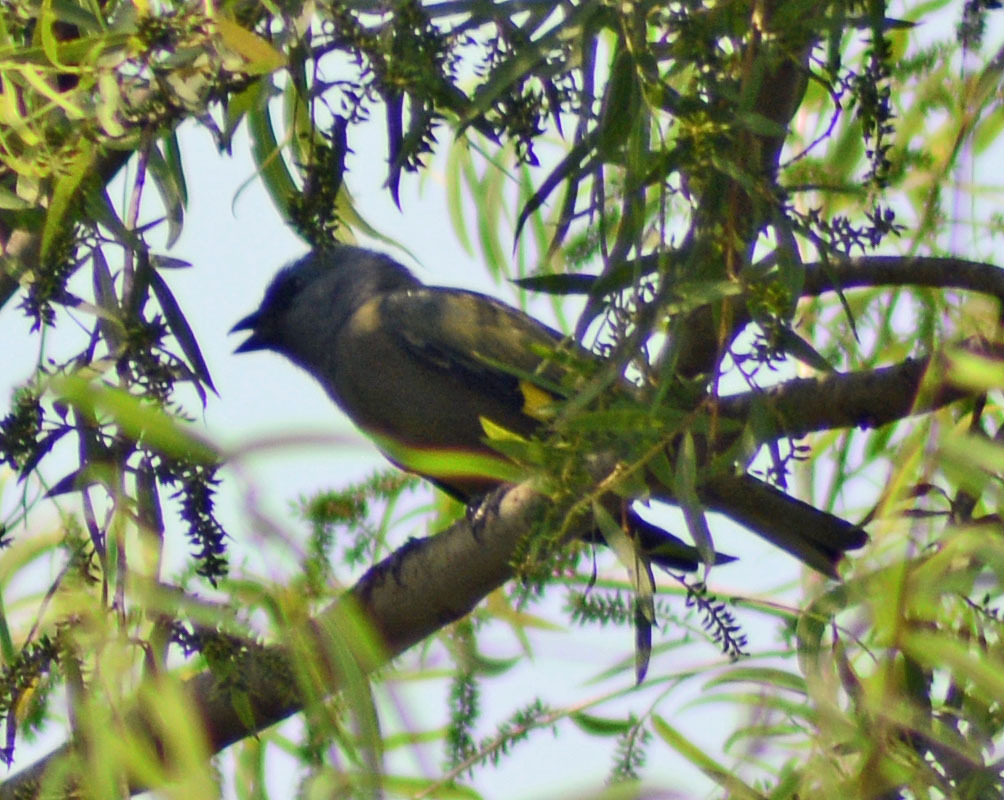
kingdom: Animalia
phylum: Chordata
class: Aves
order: Passeriformes
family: Thraupidae
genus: Thraupis
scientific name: Thraupis abbas
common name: Yellow-winged tanager
